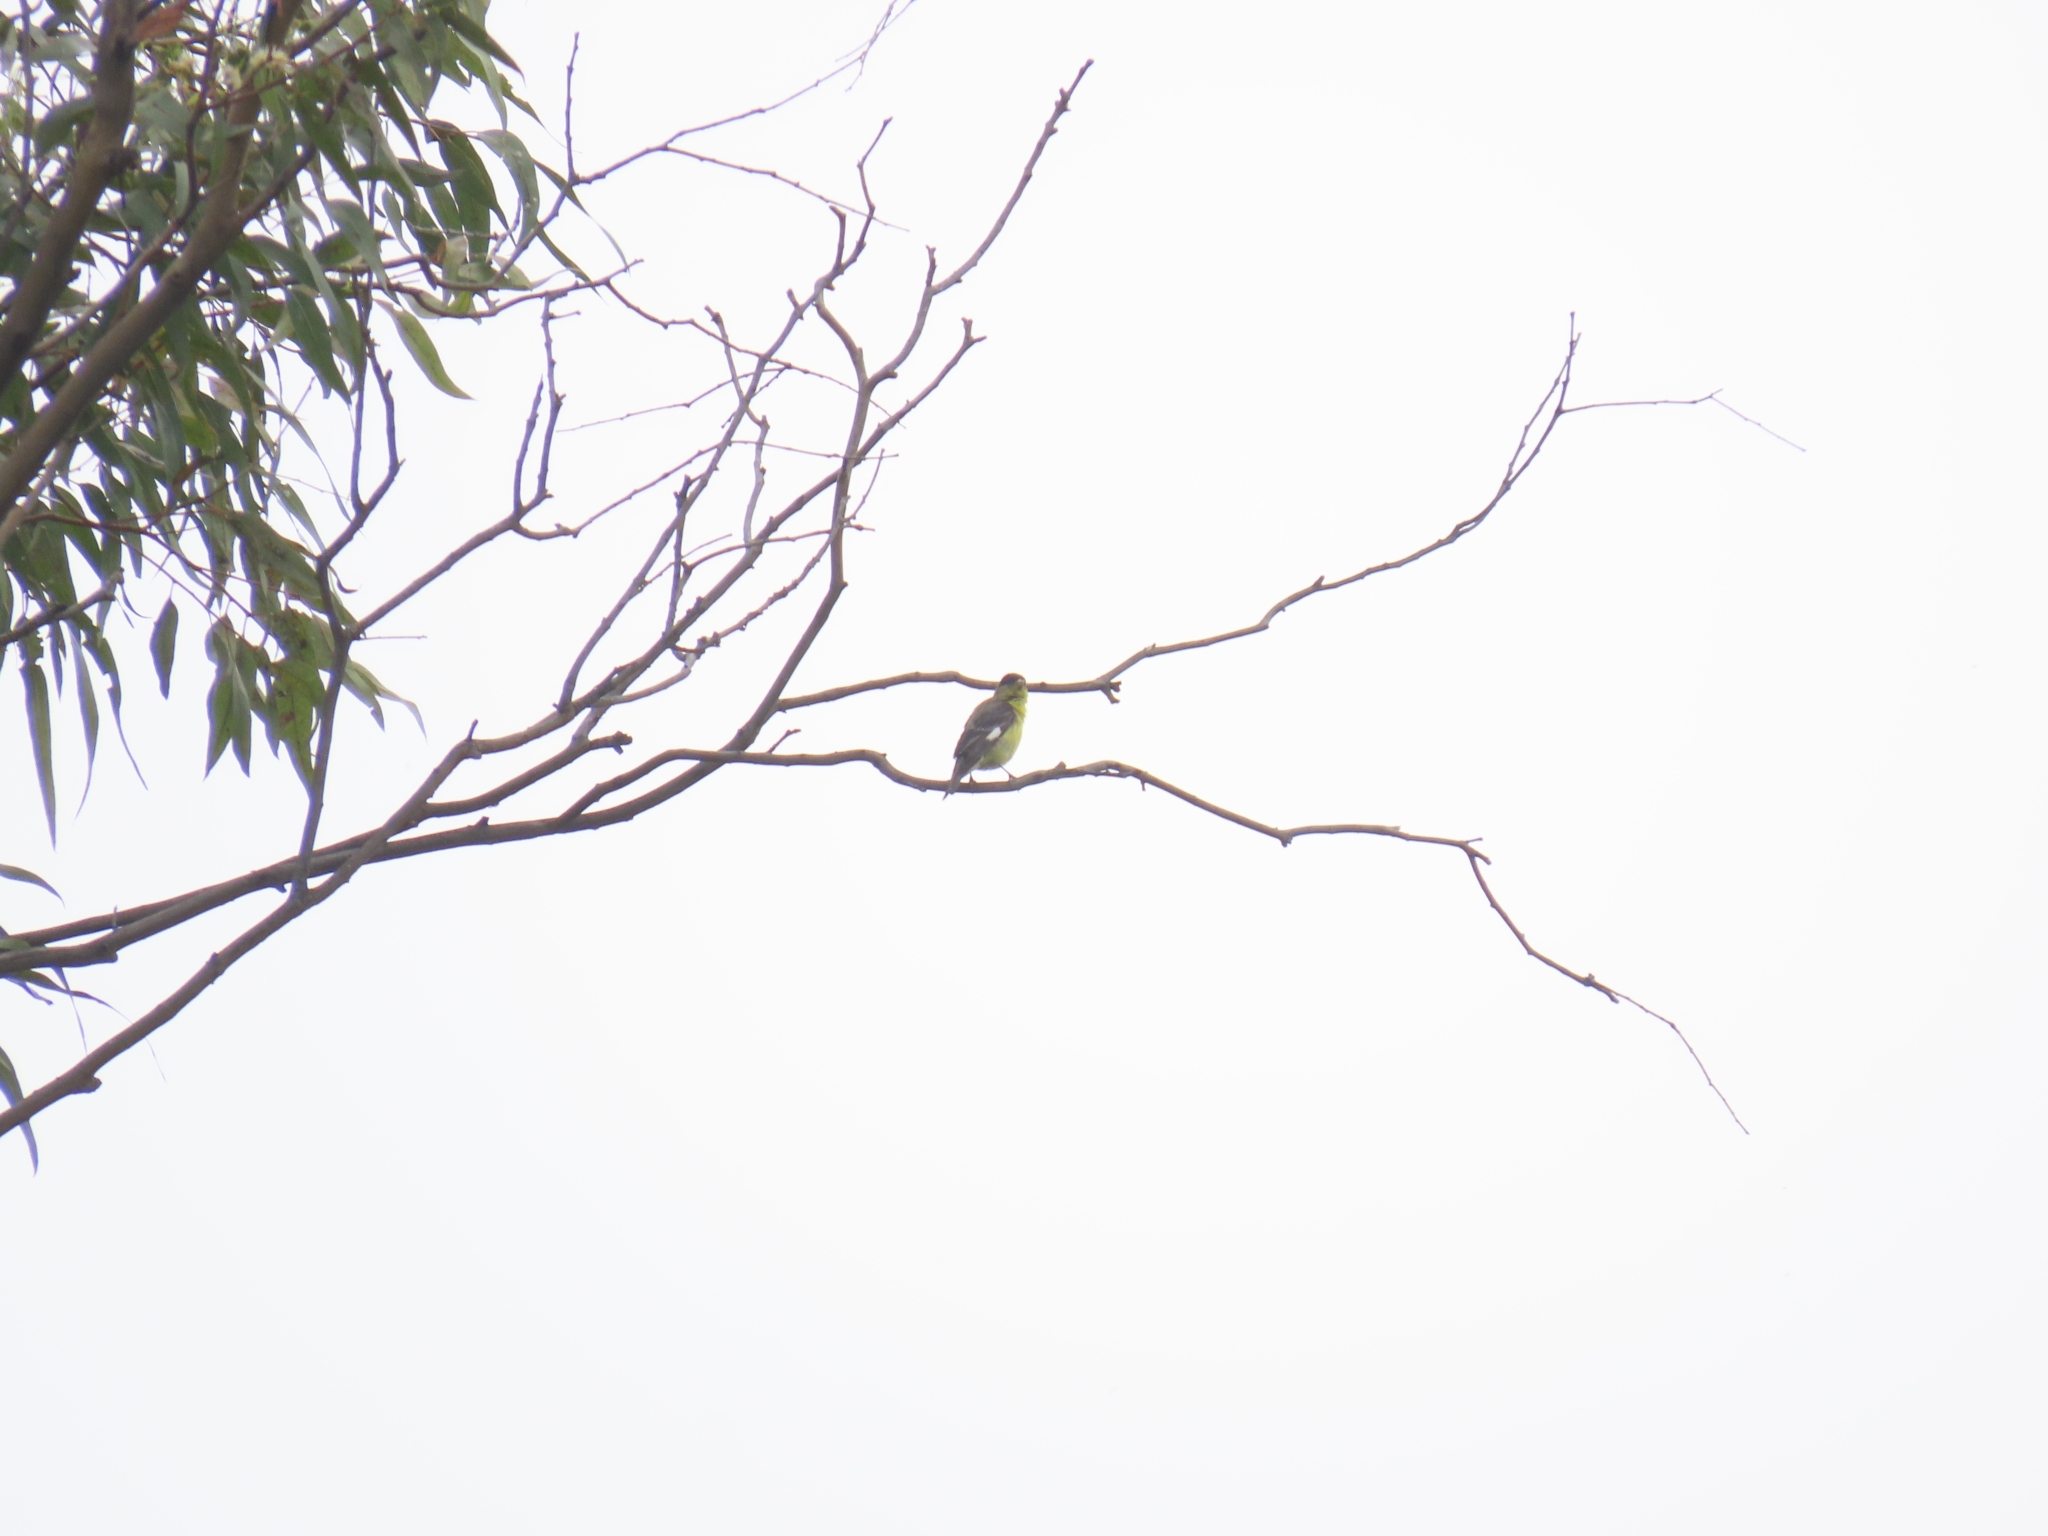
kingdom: Animalia
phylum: Chordata
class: Aves
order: Passeriformes
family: Fringillidae
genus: Spinus
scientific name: Spinus psaltria
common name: Lesser goldfinch
